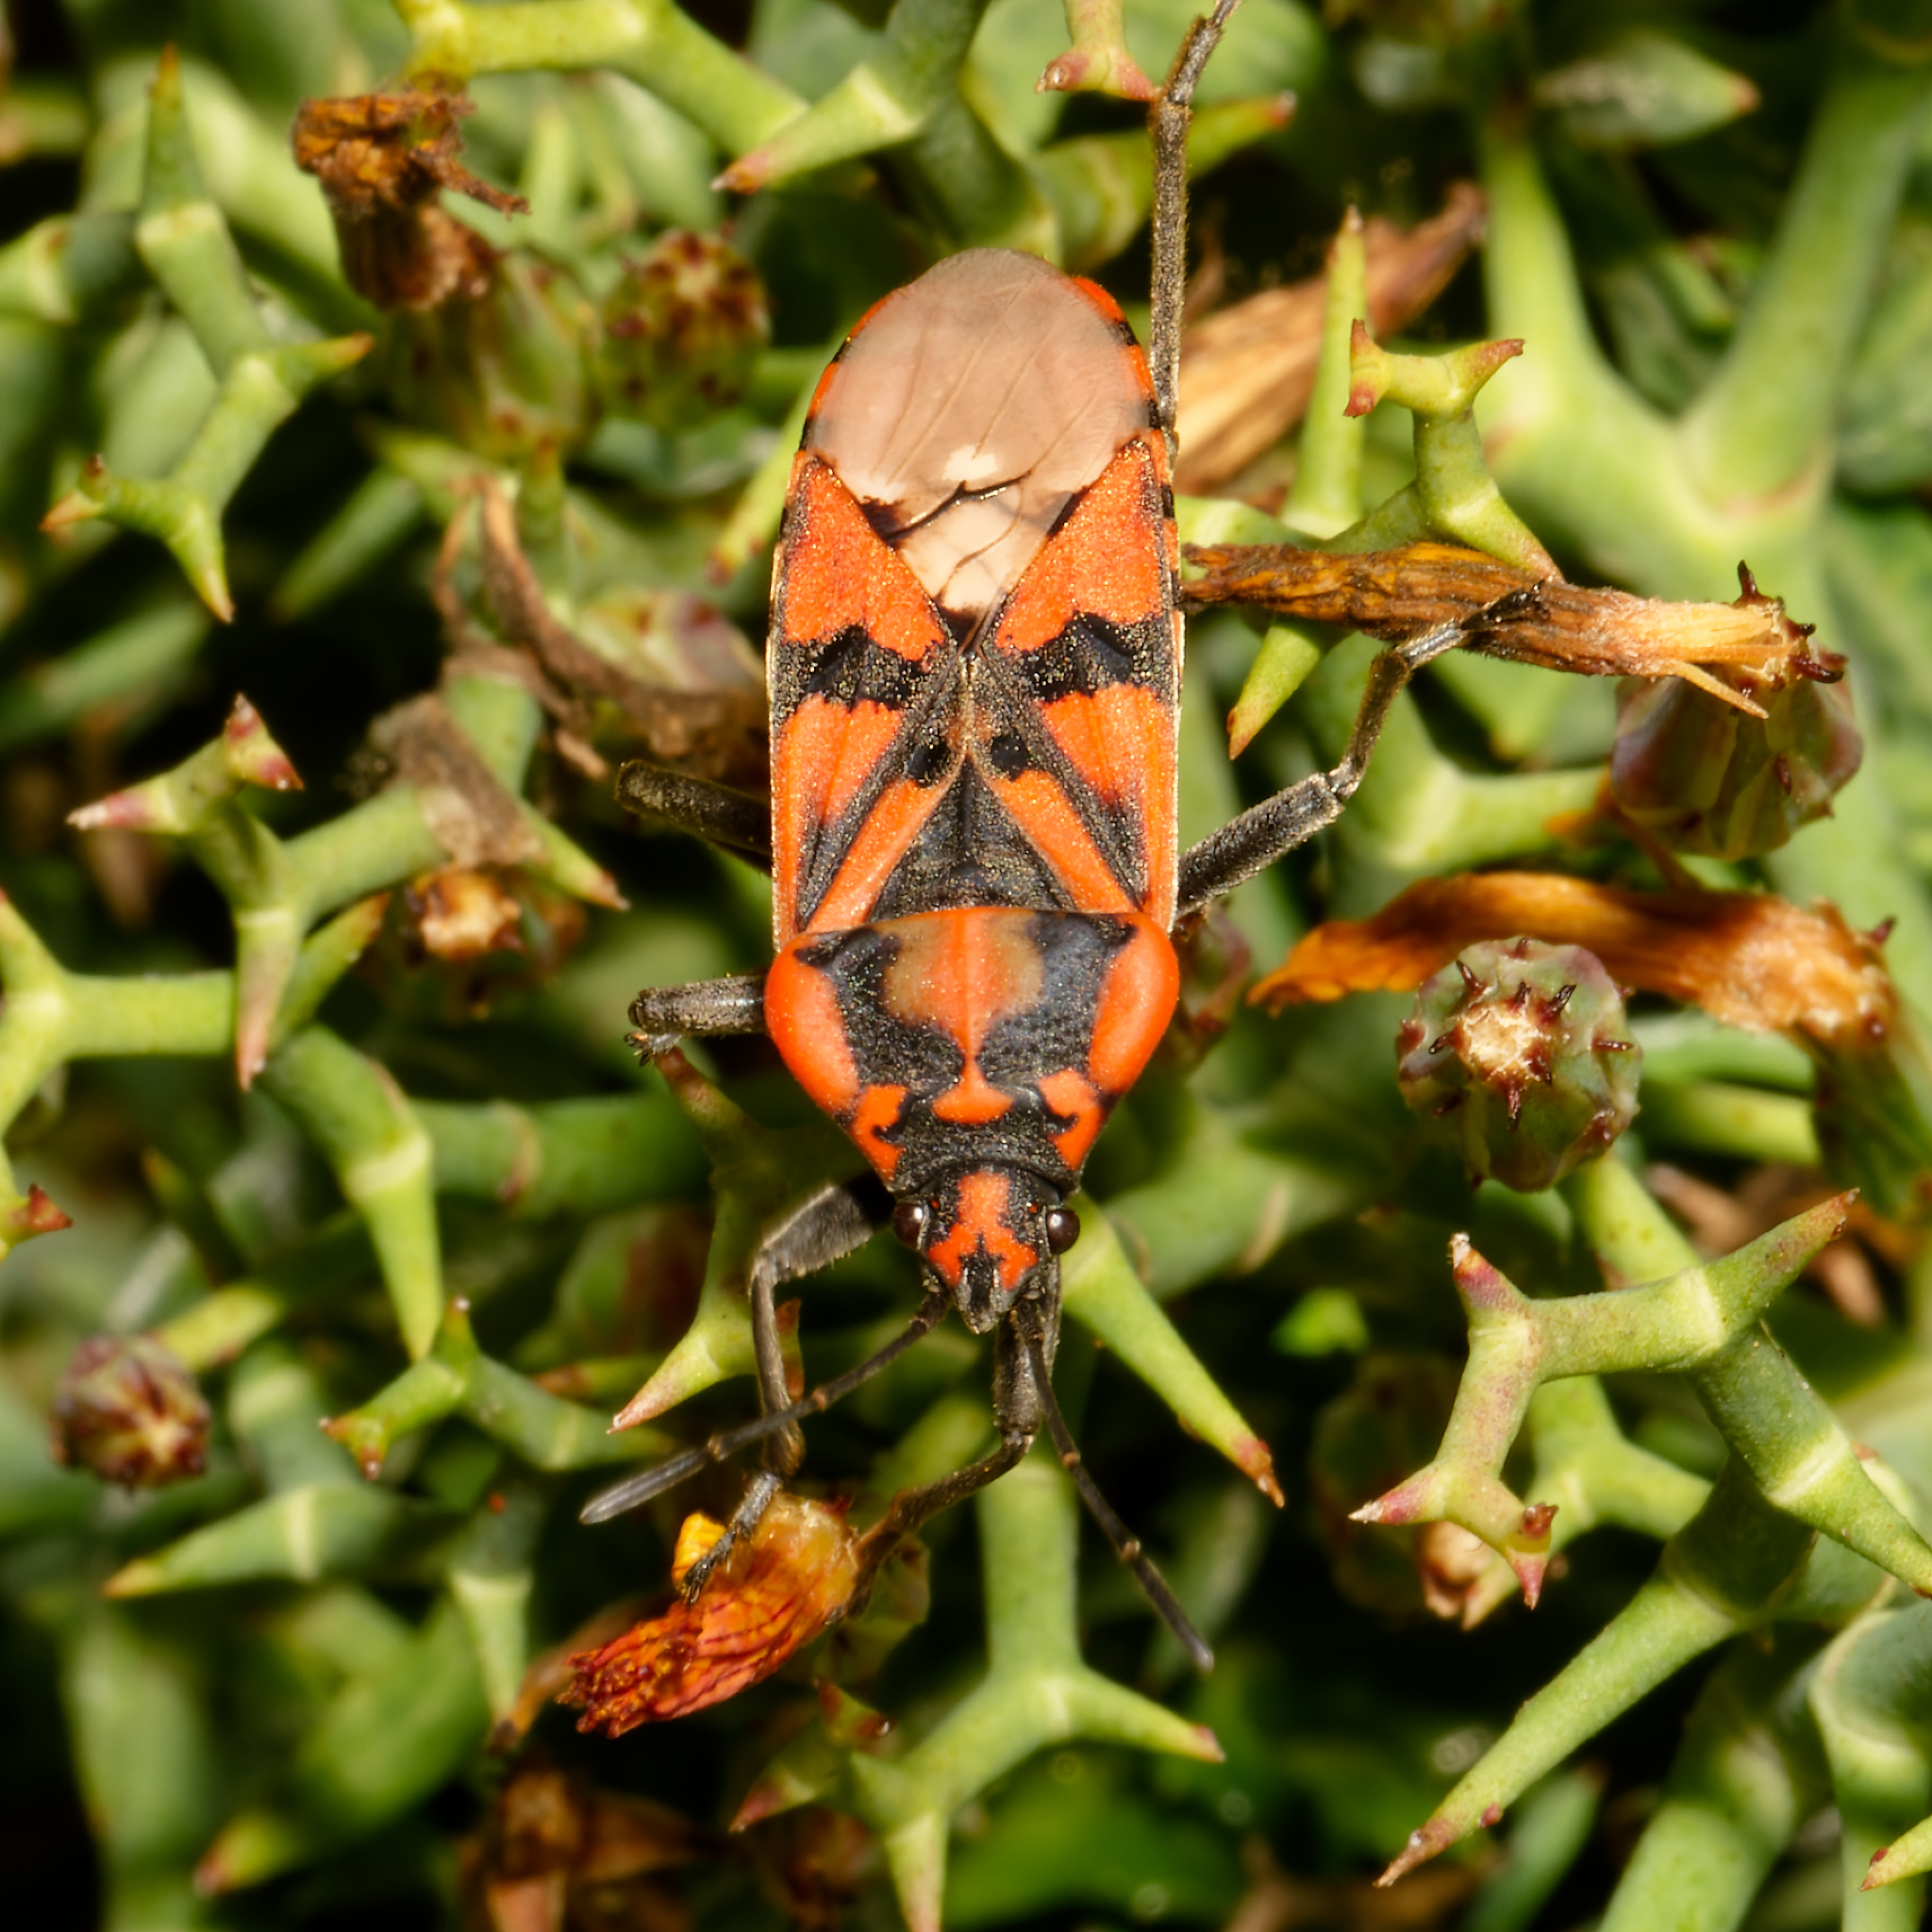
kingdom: Animalia
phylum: Arthropoda
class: Insecta
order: Hemiptera
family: Lygaeidae
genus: Spilostethus
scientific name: Spilostethus pandurus
